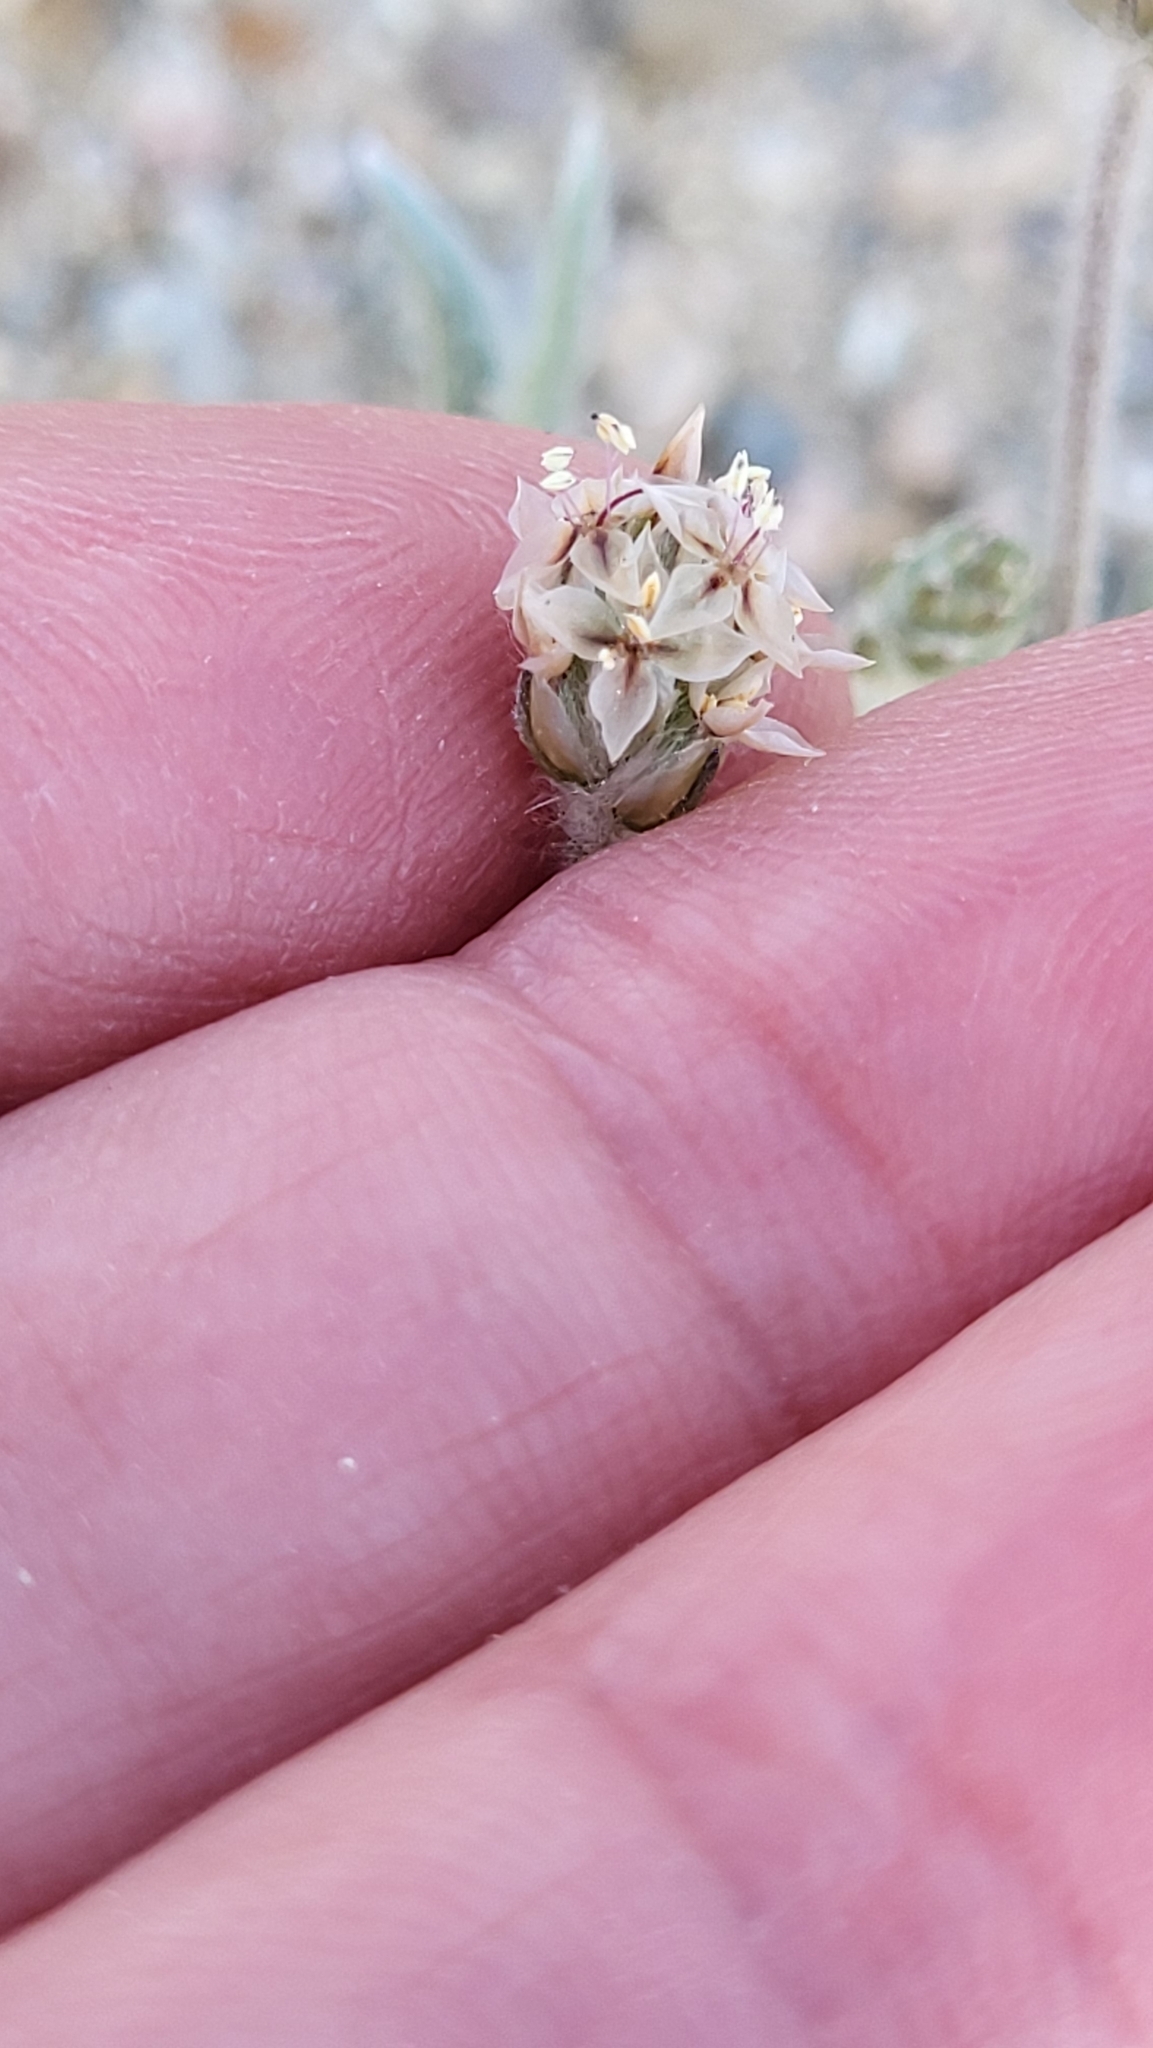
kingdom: Plantae
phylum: Tracheophyta
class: Magnoliopsida
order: Lamiales
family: Plantaginaceae
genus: Plantago
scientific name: Plantago ovata
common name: Blond plantain
